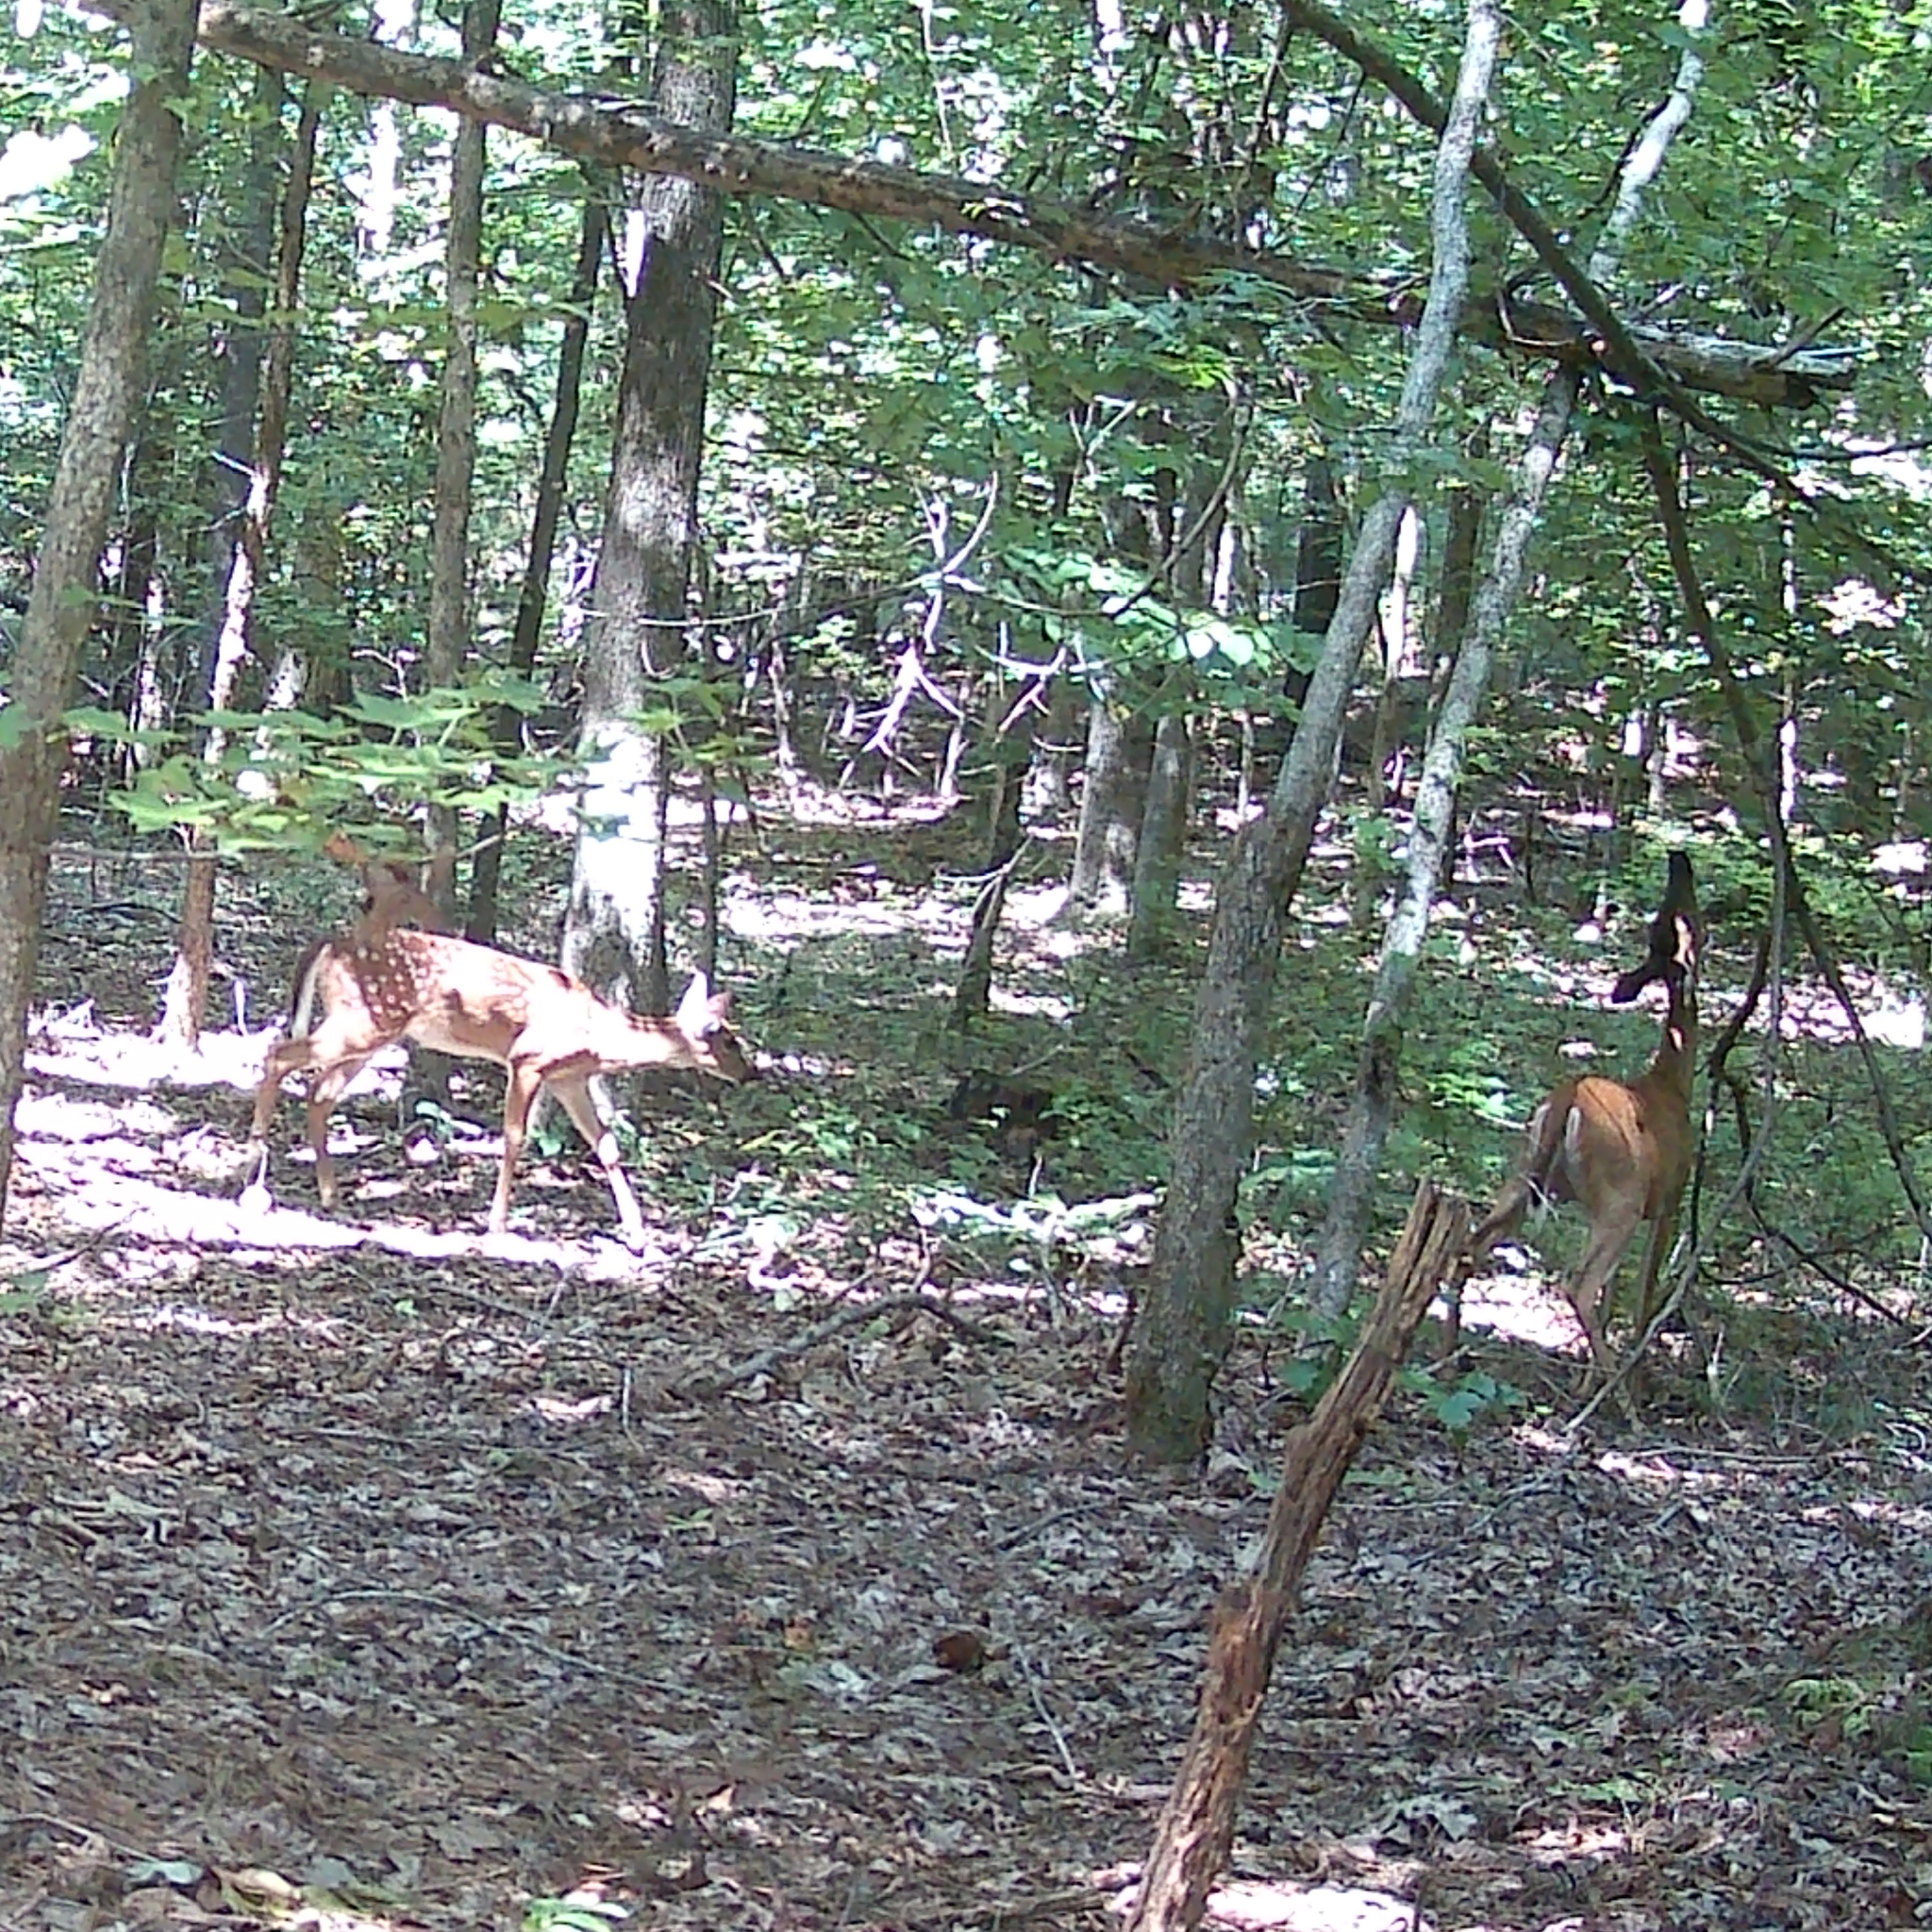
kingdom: Animalia
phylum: Chordata
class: Mammalia
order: Artiodactyla
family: Cervidae
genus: Odocoileus
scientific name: Odocoileus virginianus
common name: White-tailed deer
